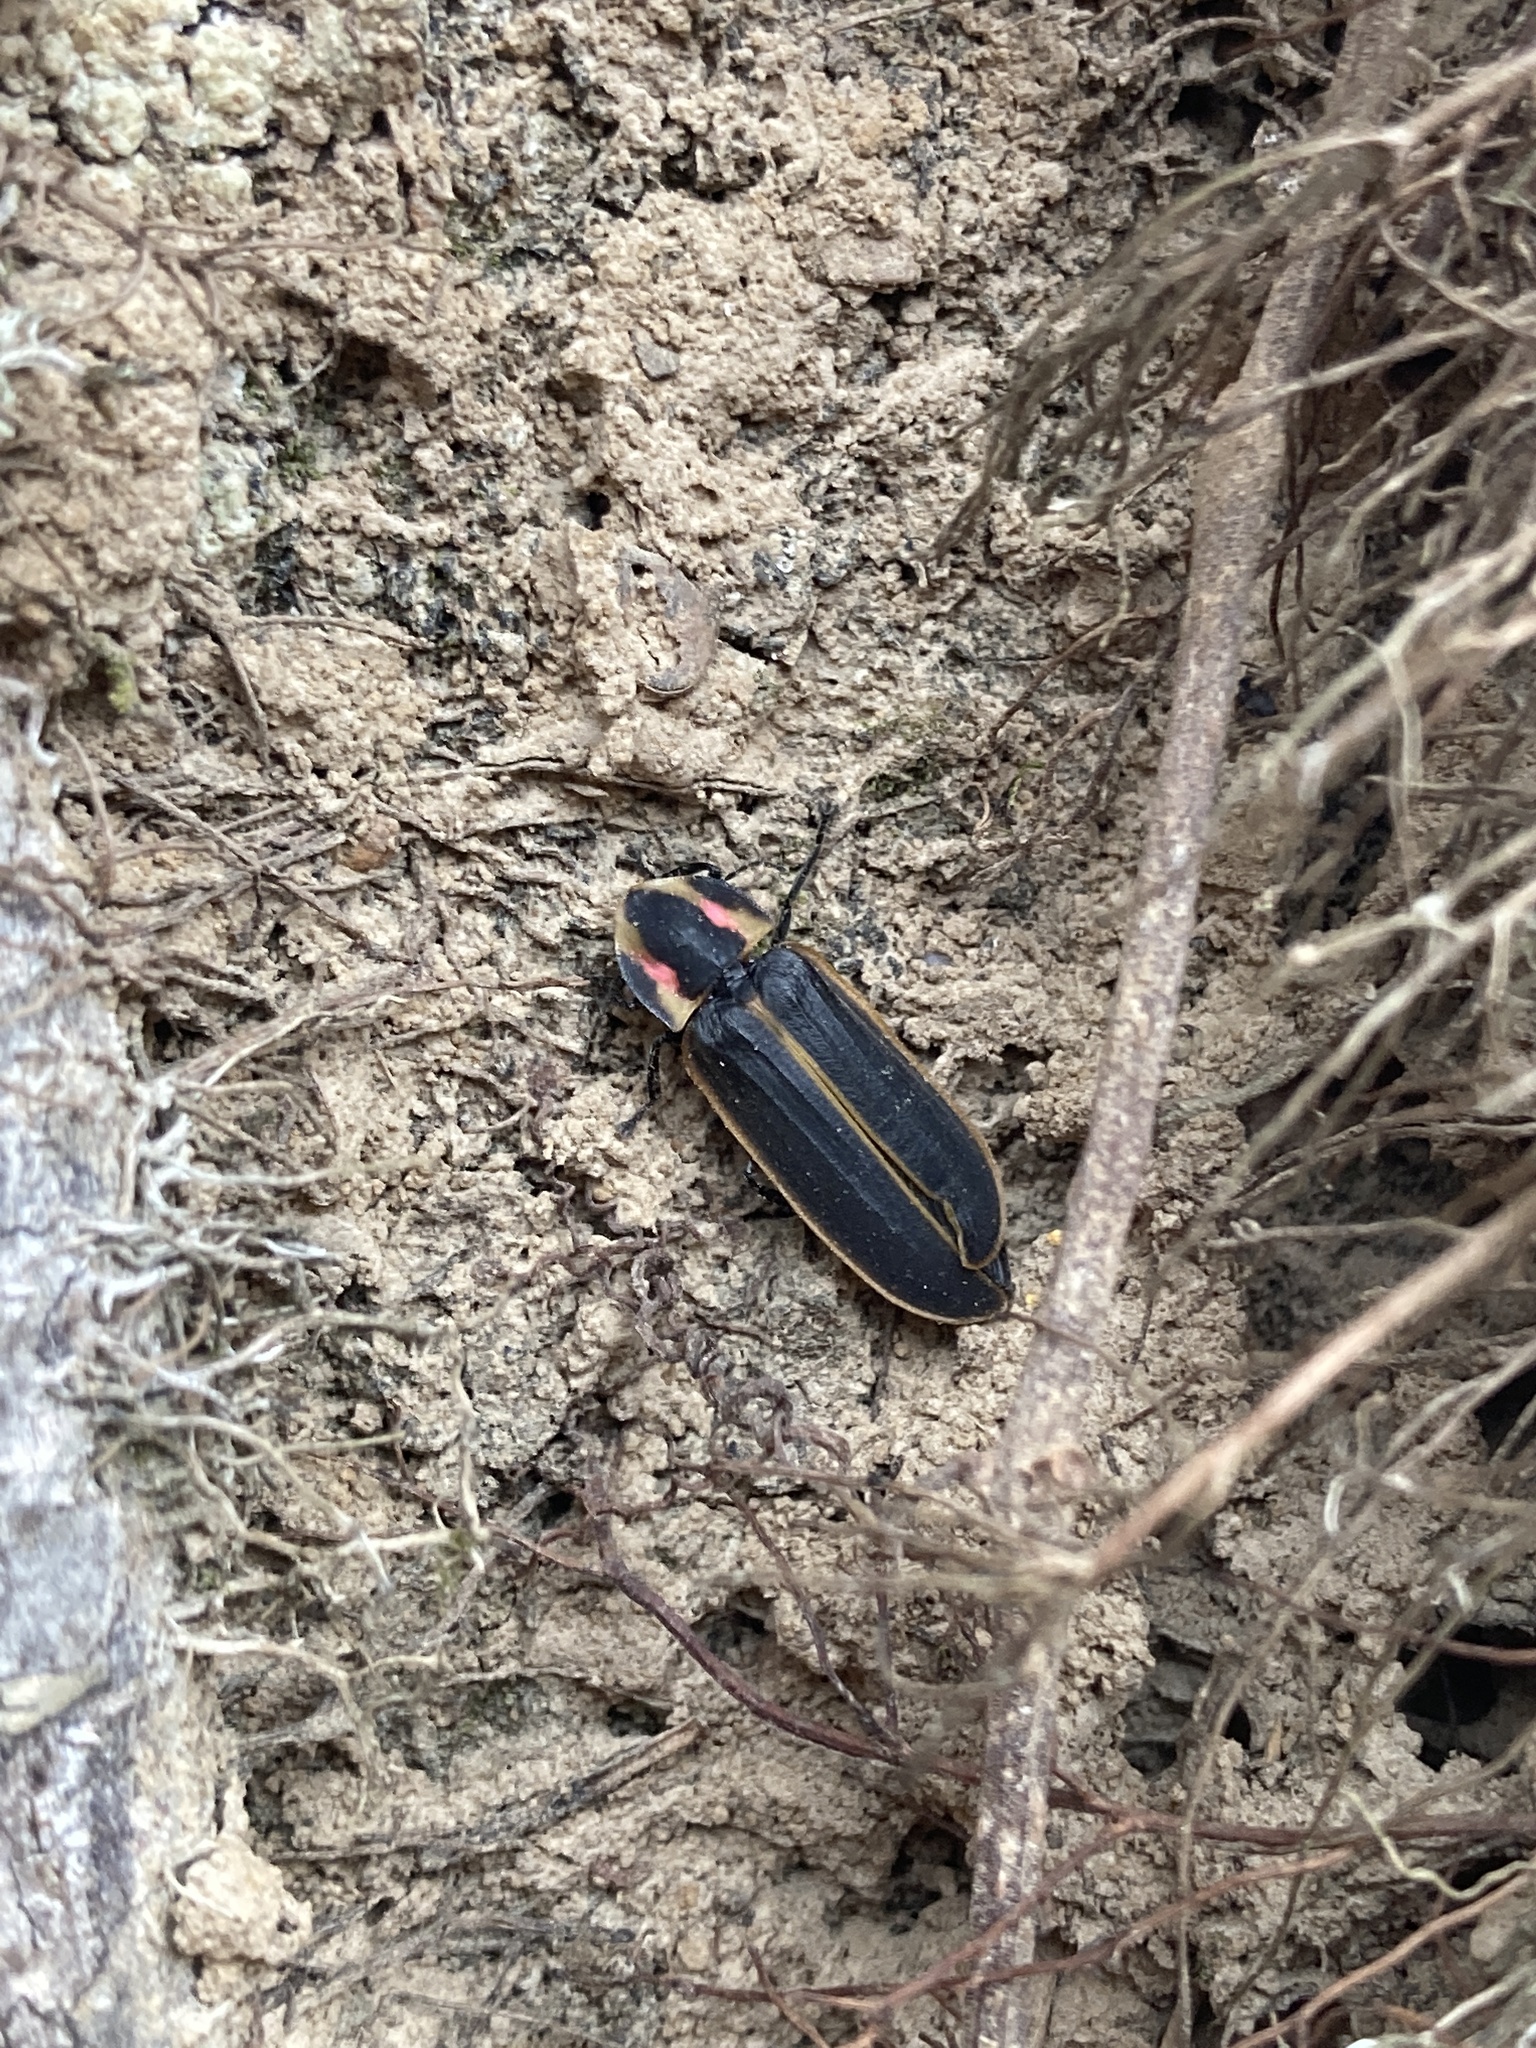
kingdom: Animalia
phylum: Arthropoda
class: Insecta
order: Coleoptera
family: Lampyridae
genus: Pyractomena
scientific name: Pyractomena borealis
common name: Northern firefly
